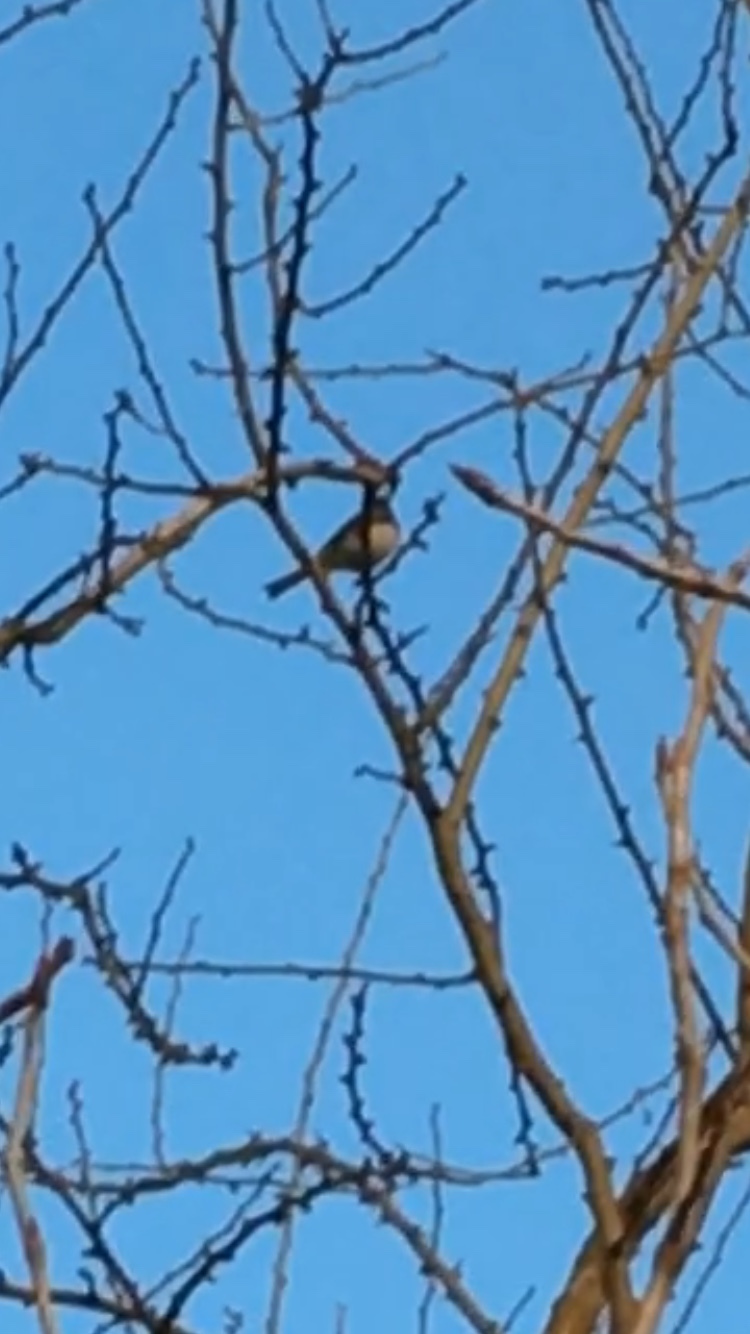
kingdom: Animalia
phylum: Chordata
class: Aves
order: Passeriformes
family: Passerellidae
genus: Junco
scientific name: Junco hyemalis
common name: Dark-eyed junco
